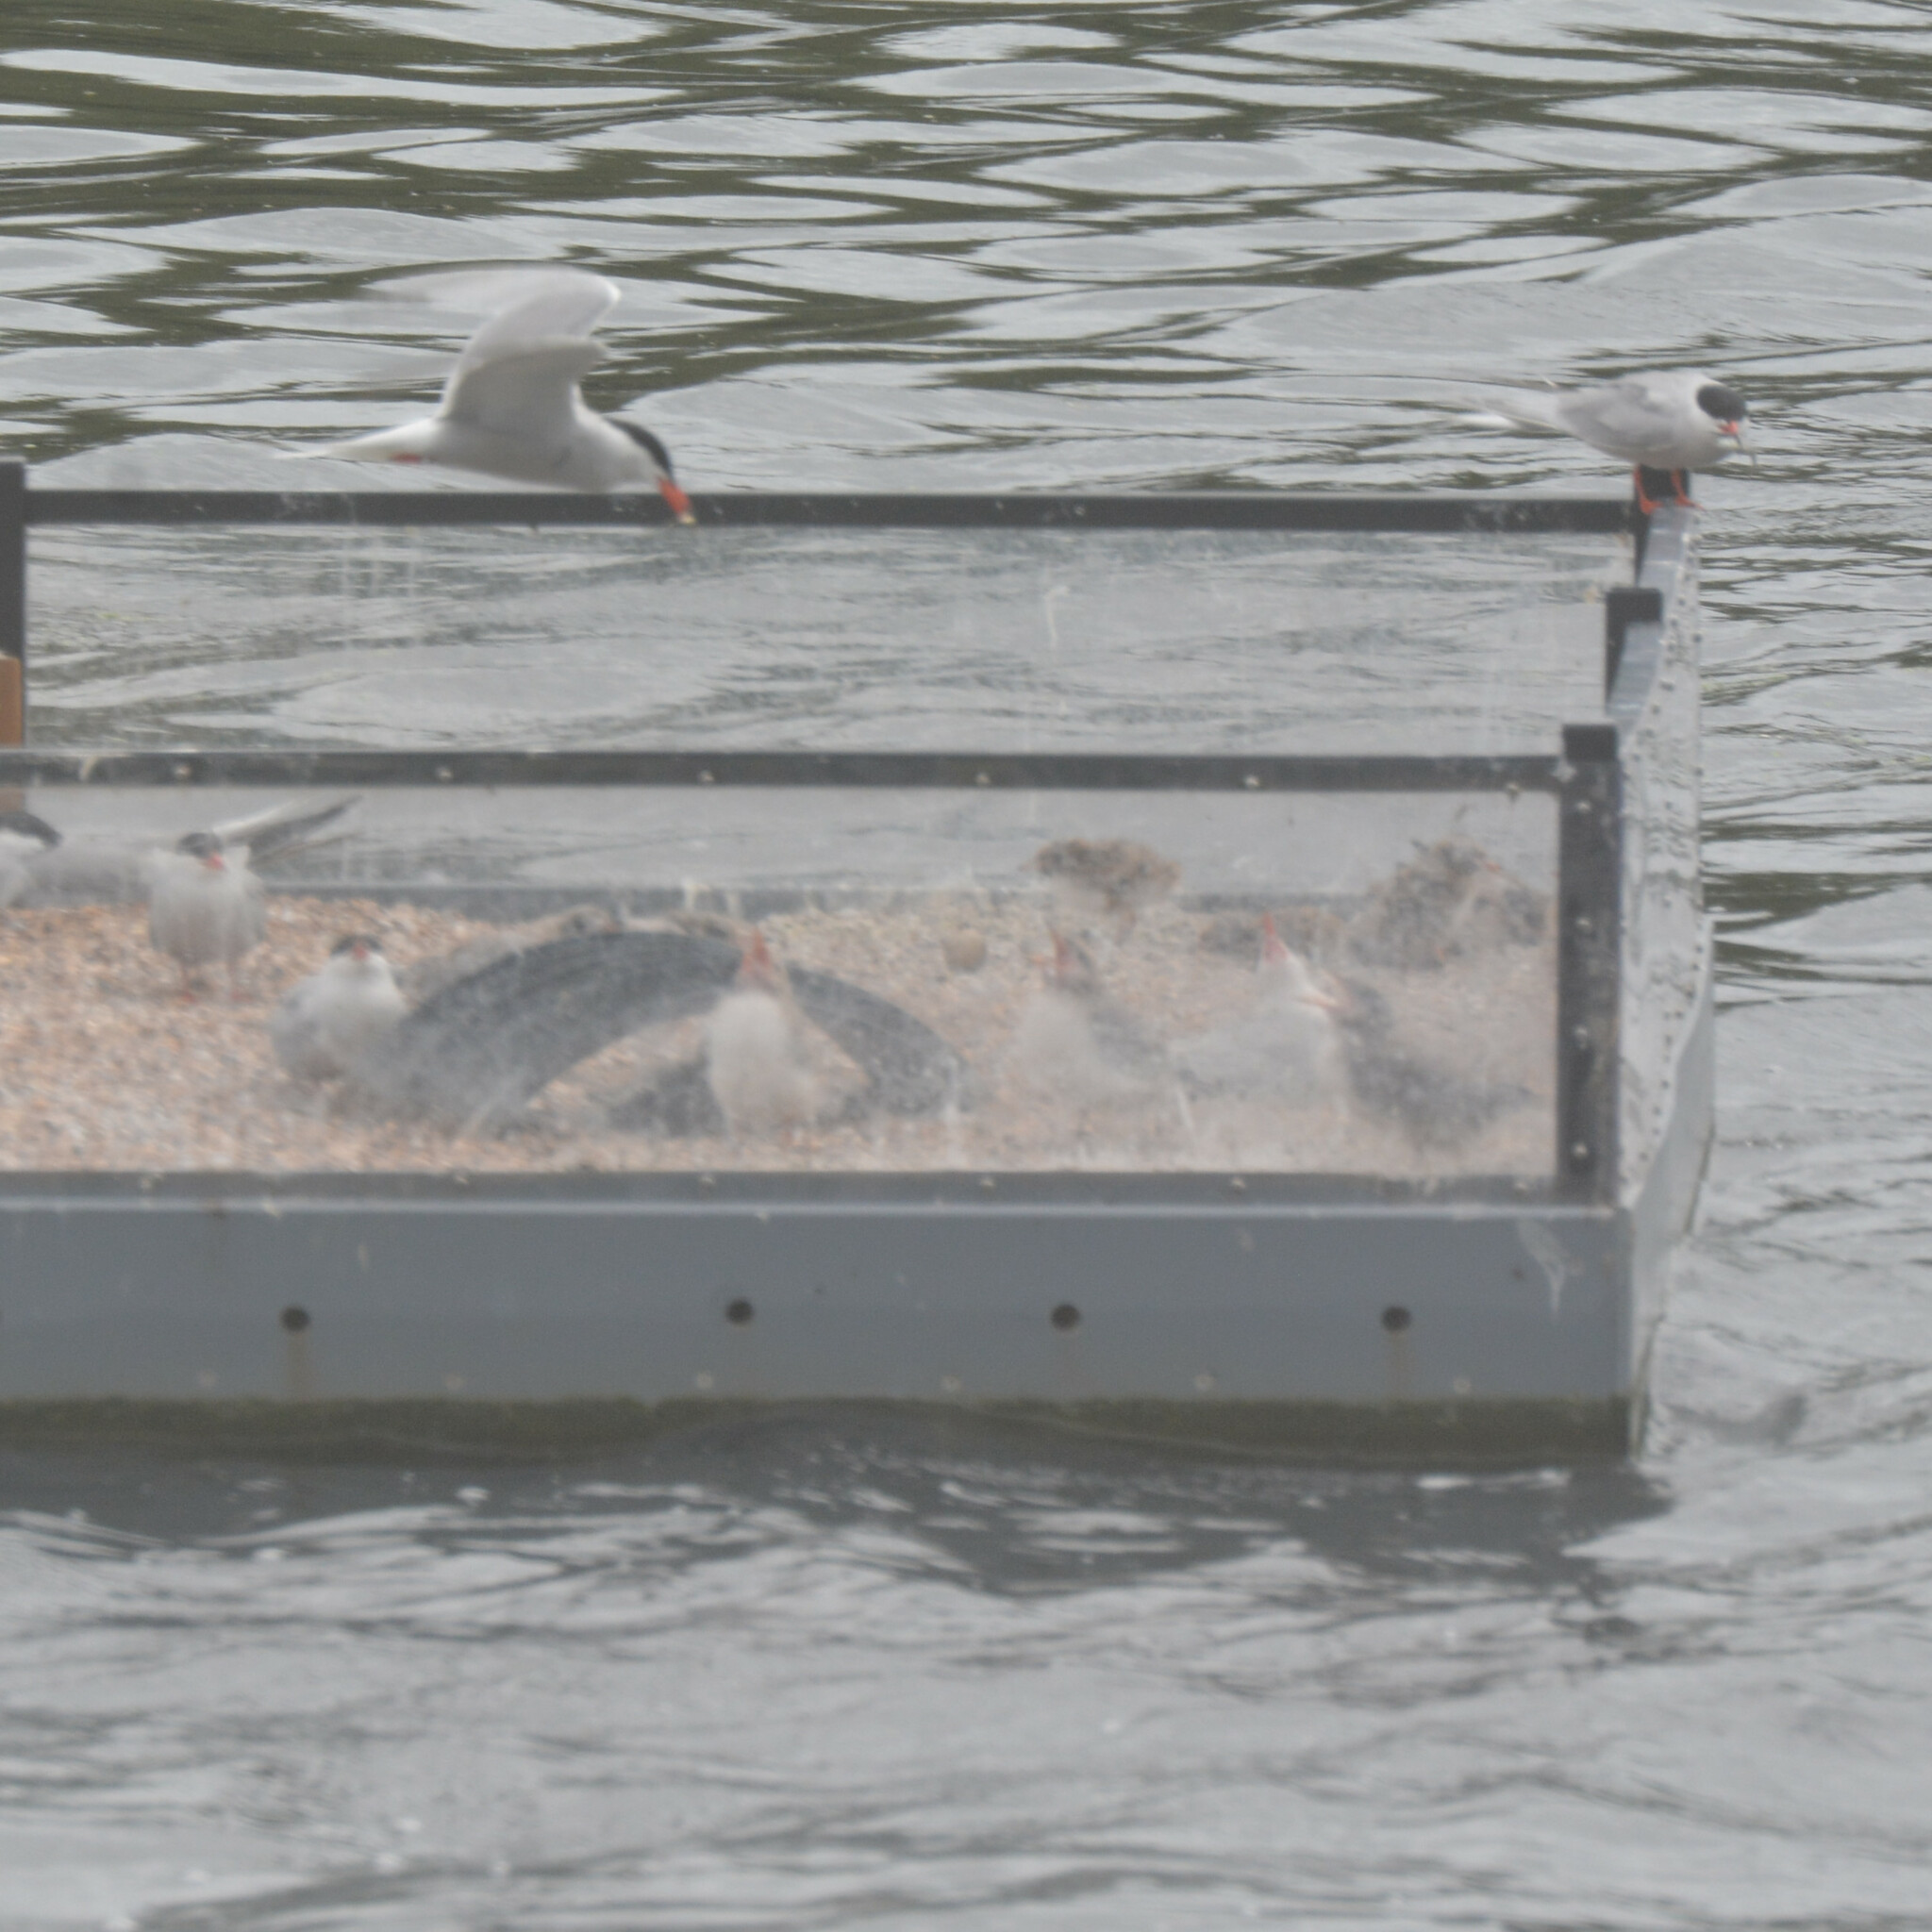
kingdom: Animalia
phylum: Chordata
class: Aves
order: Charadriiformes
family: Laridae
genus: Sterna
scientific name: Sterna hirundo
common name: Common tern
